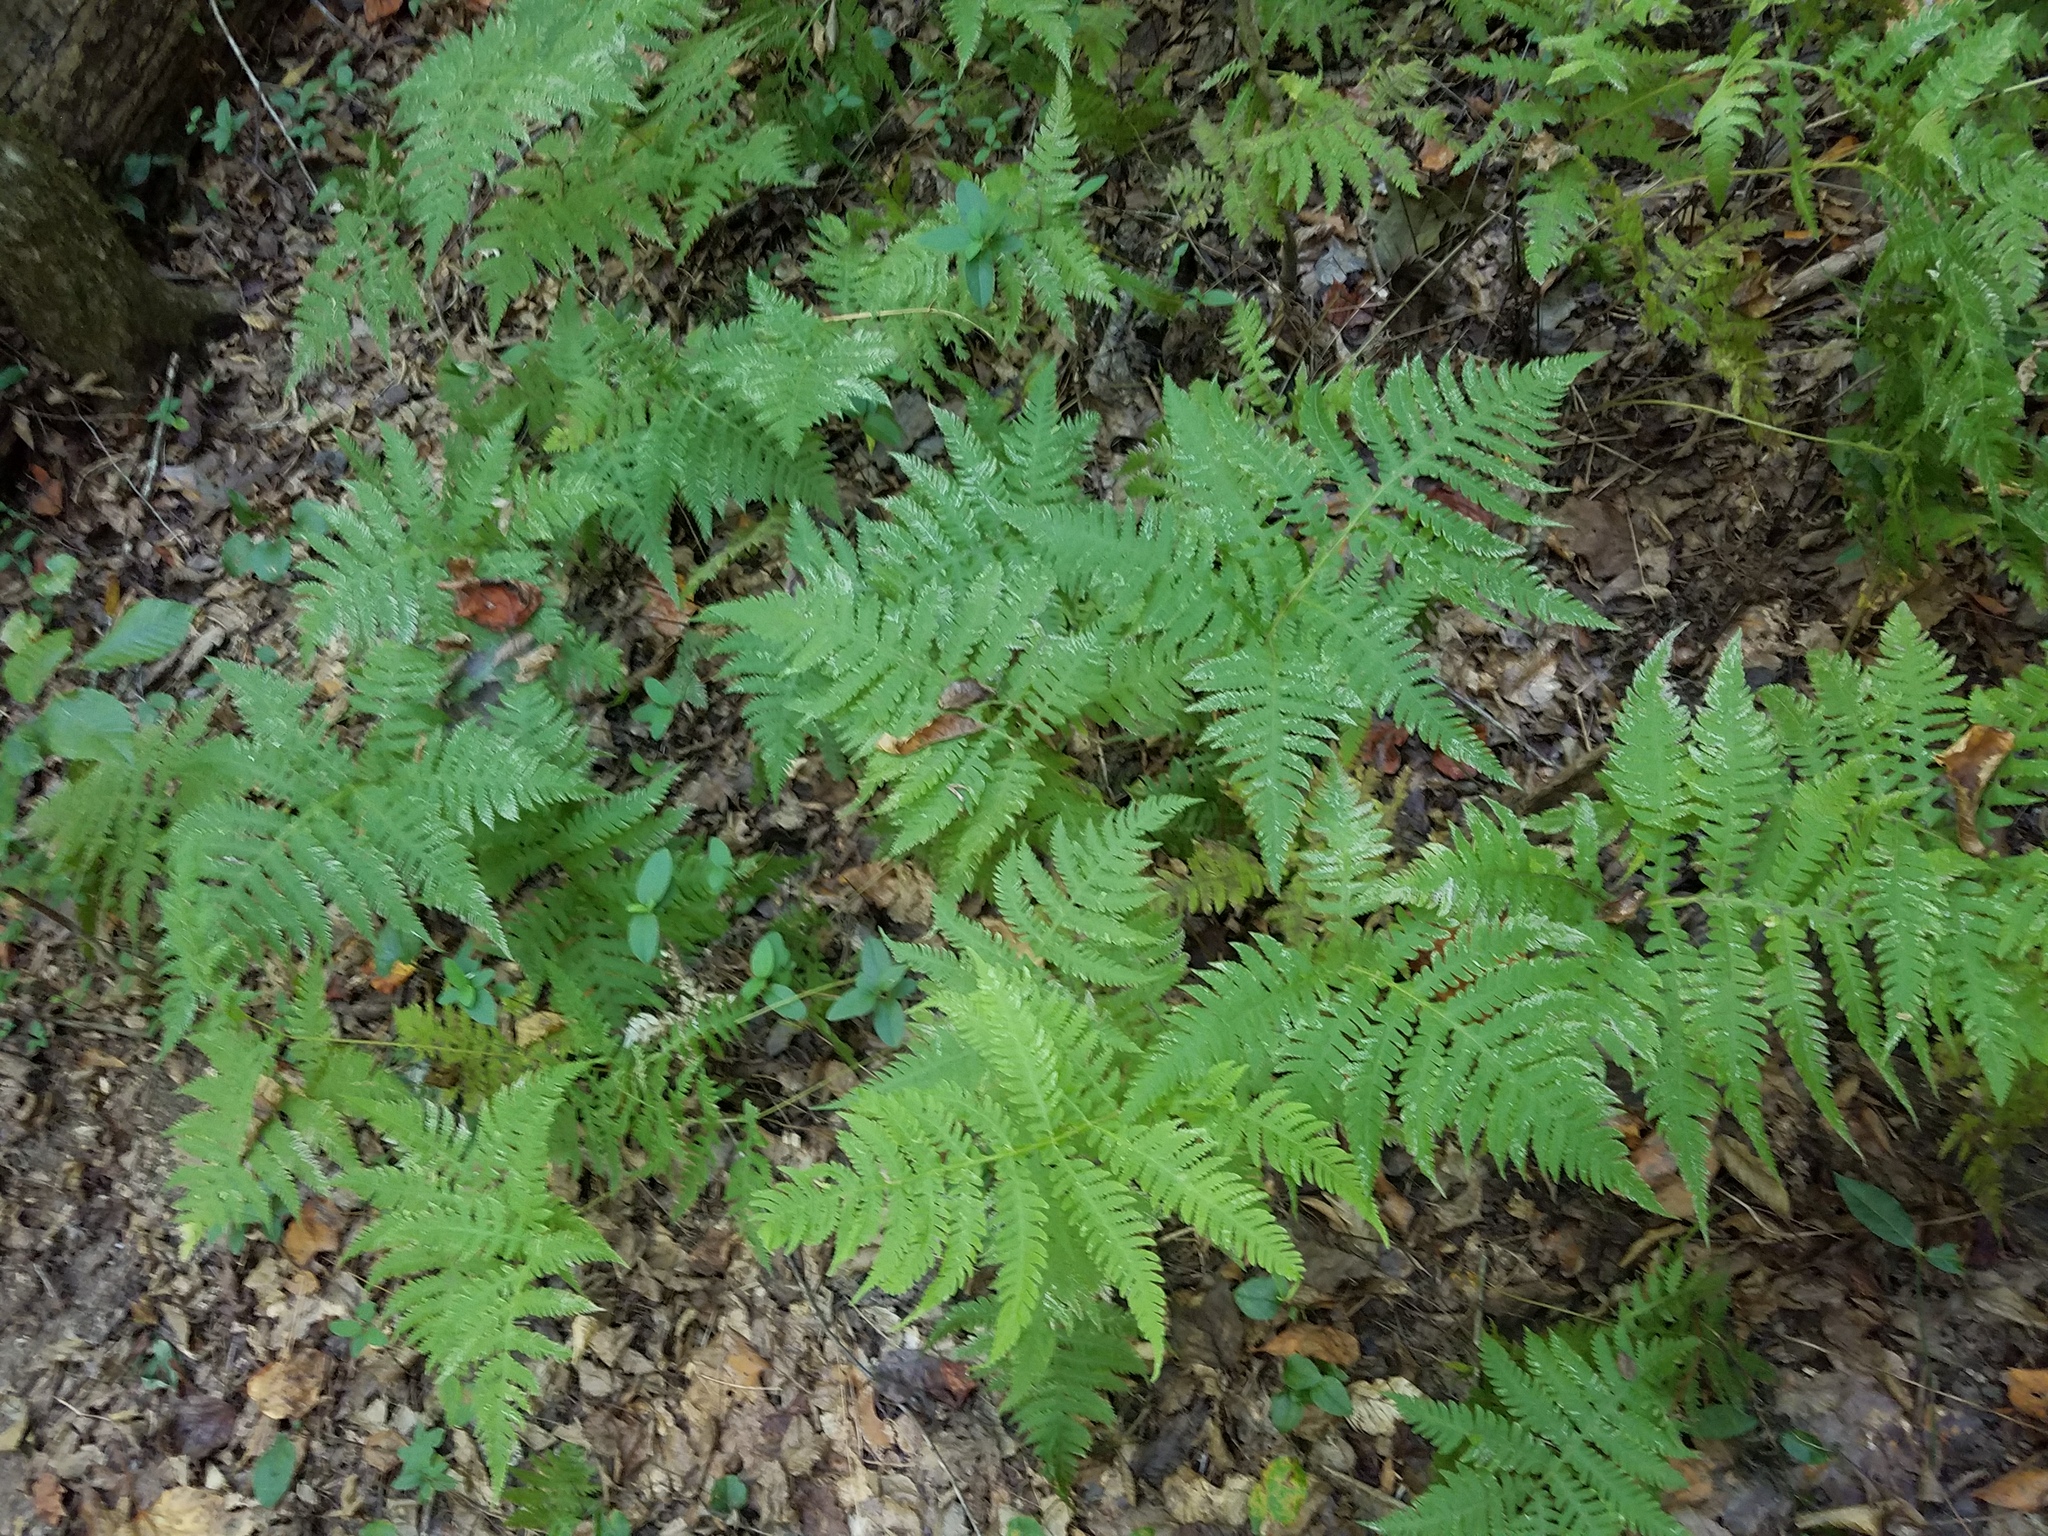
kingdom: Plantae
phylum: Tracheophyta
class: Polypodiopsida
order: Polypodiales
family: Thelypteridaceae
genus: Phegopteris
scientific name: Phegopteris hexagonoptera
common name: Broad beech fern
